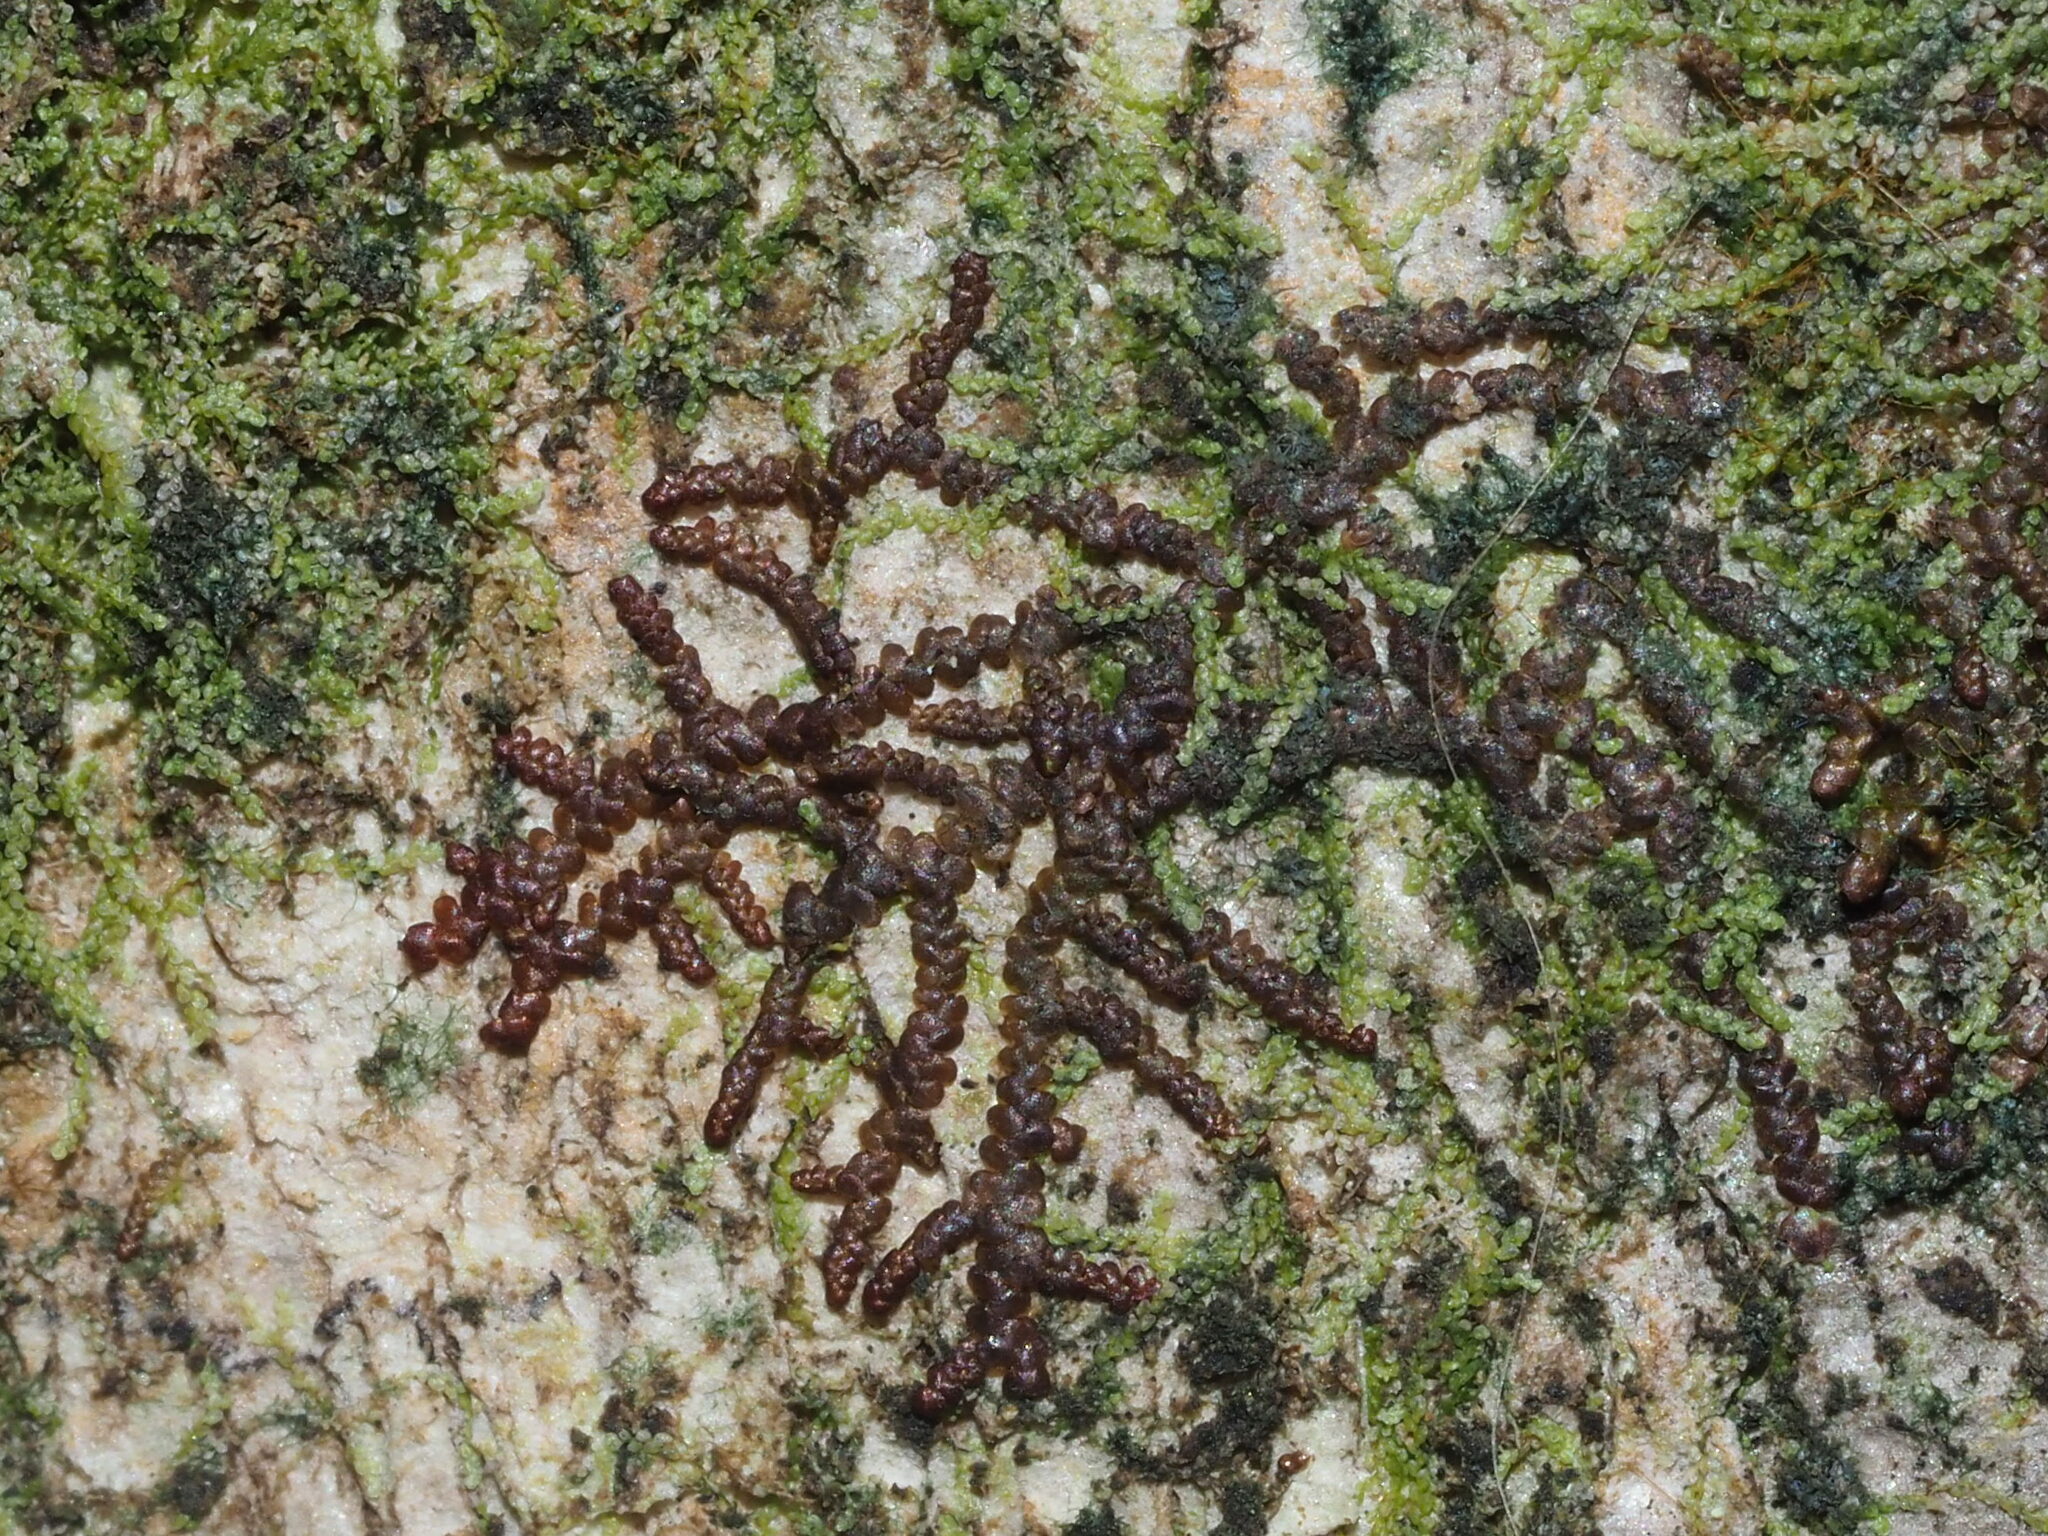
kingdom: Plantae
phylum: Marchantiophyta
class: Jungermanniopsida
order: Porellales
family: Frullaniaceae
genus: Frullania
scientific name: Frullania meyeniana
